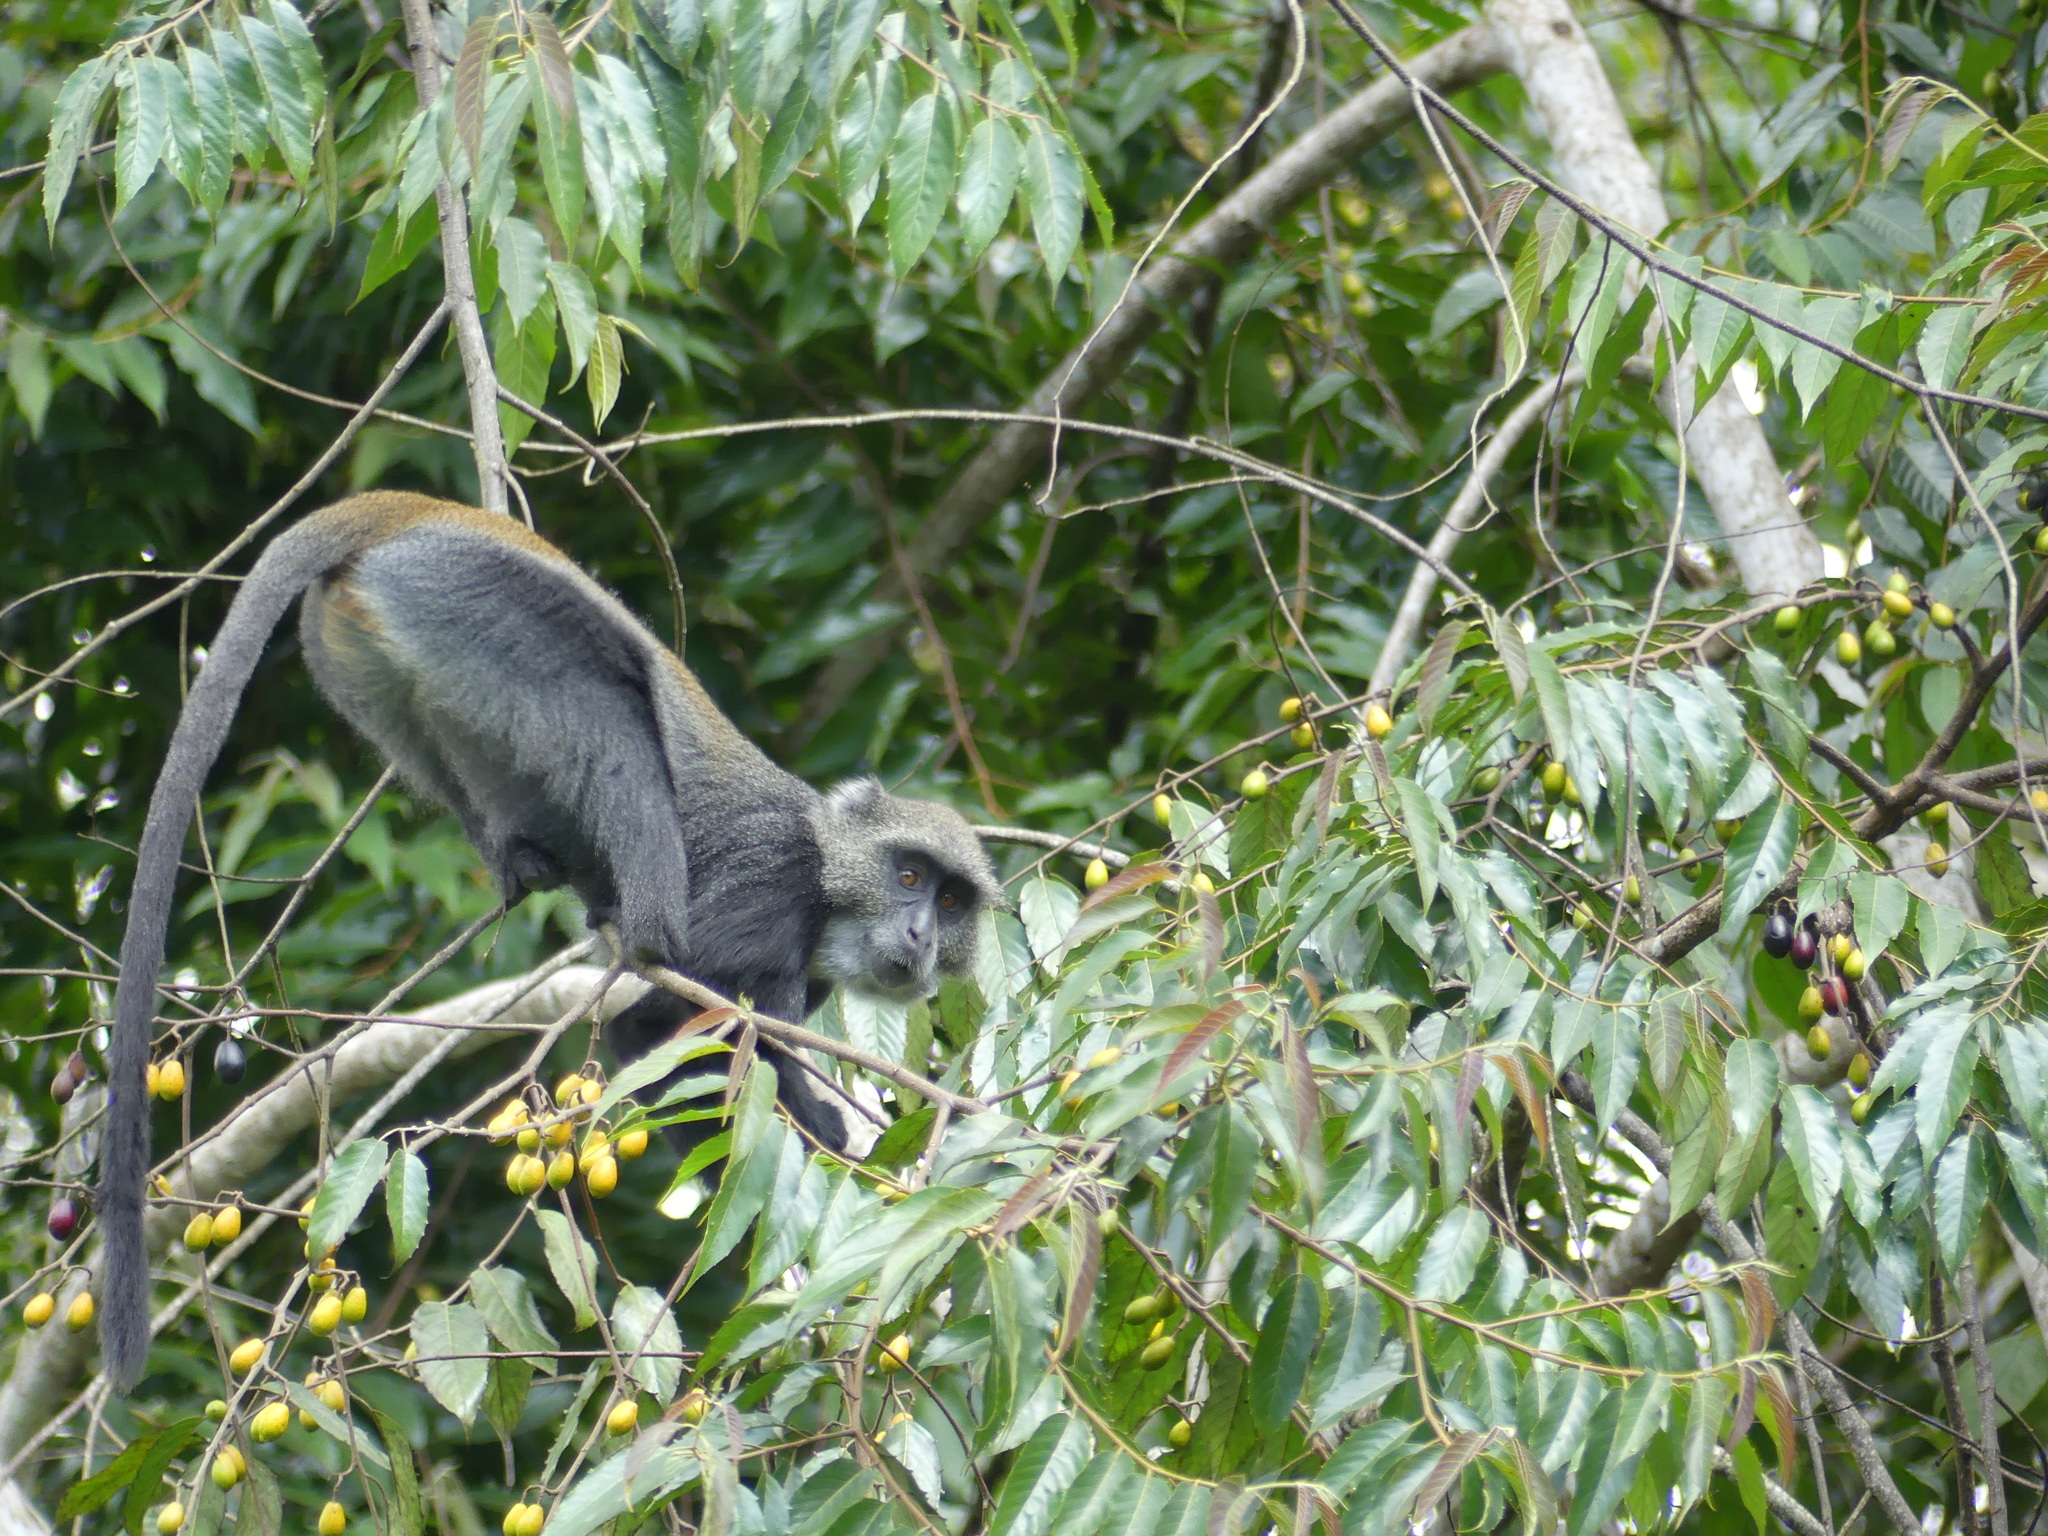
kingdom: Animalia
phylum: Chordata
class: Mammalia
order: Primates
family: Cercopithecidae
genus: Cercopithecus
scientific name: Cercopithecus mitis
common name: Blue monkey
